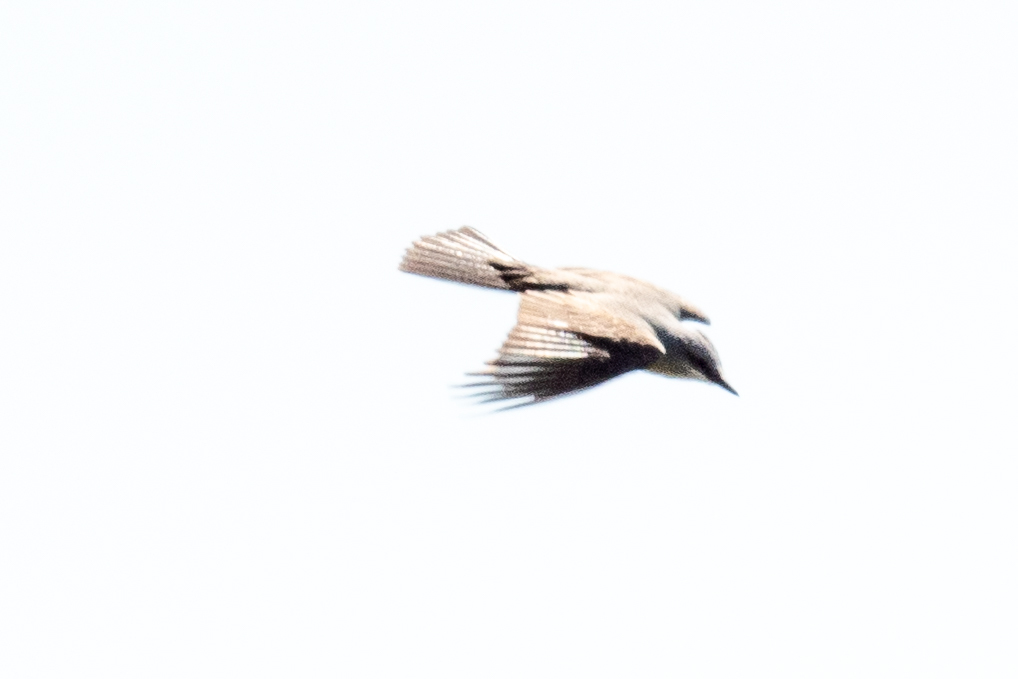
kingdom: Animalia
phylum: Chordata
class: Aves
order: Passeriformes
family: Tyrannidae
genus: Tyrannus
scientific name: Tyrannus verticalis
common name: Western kingbird
